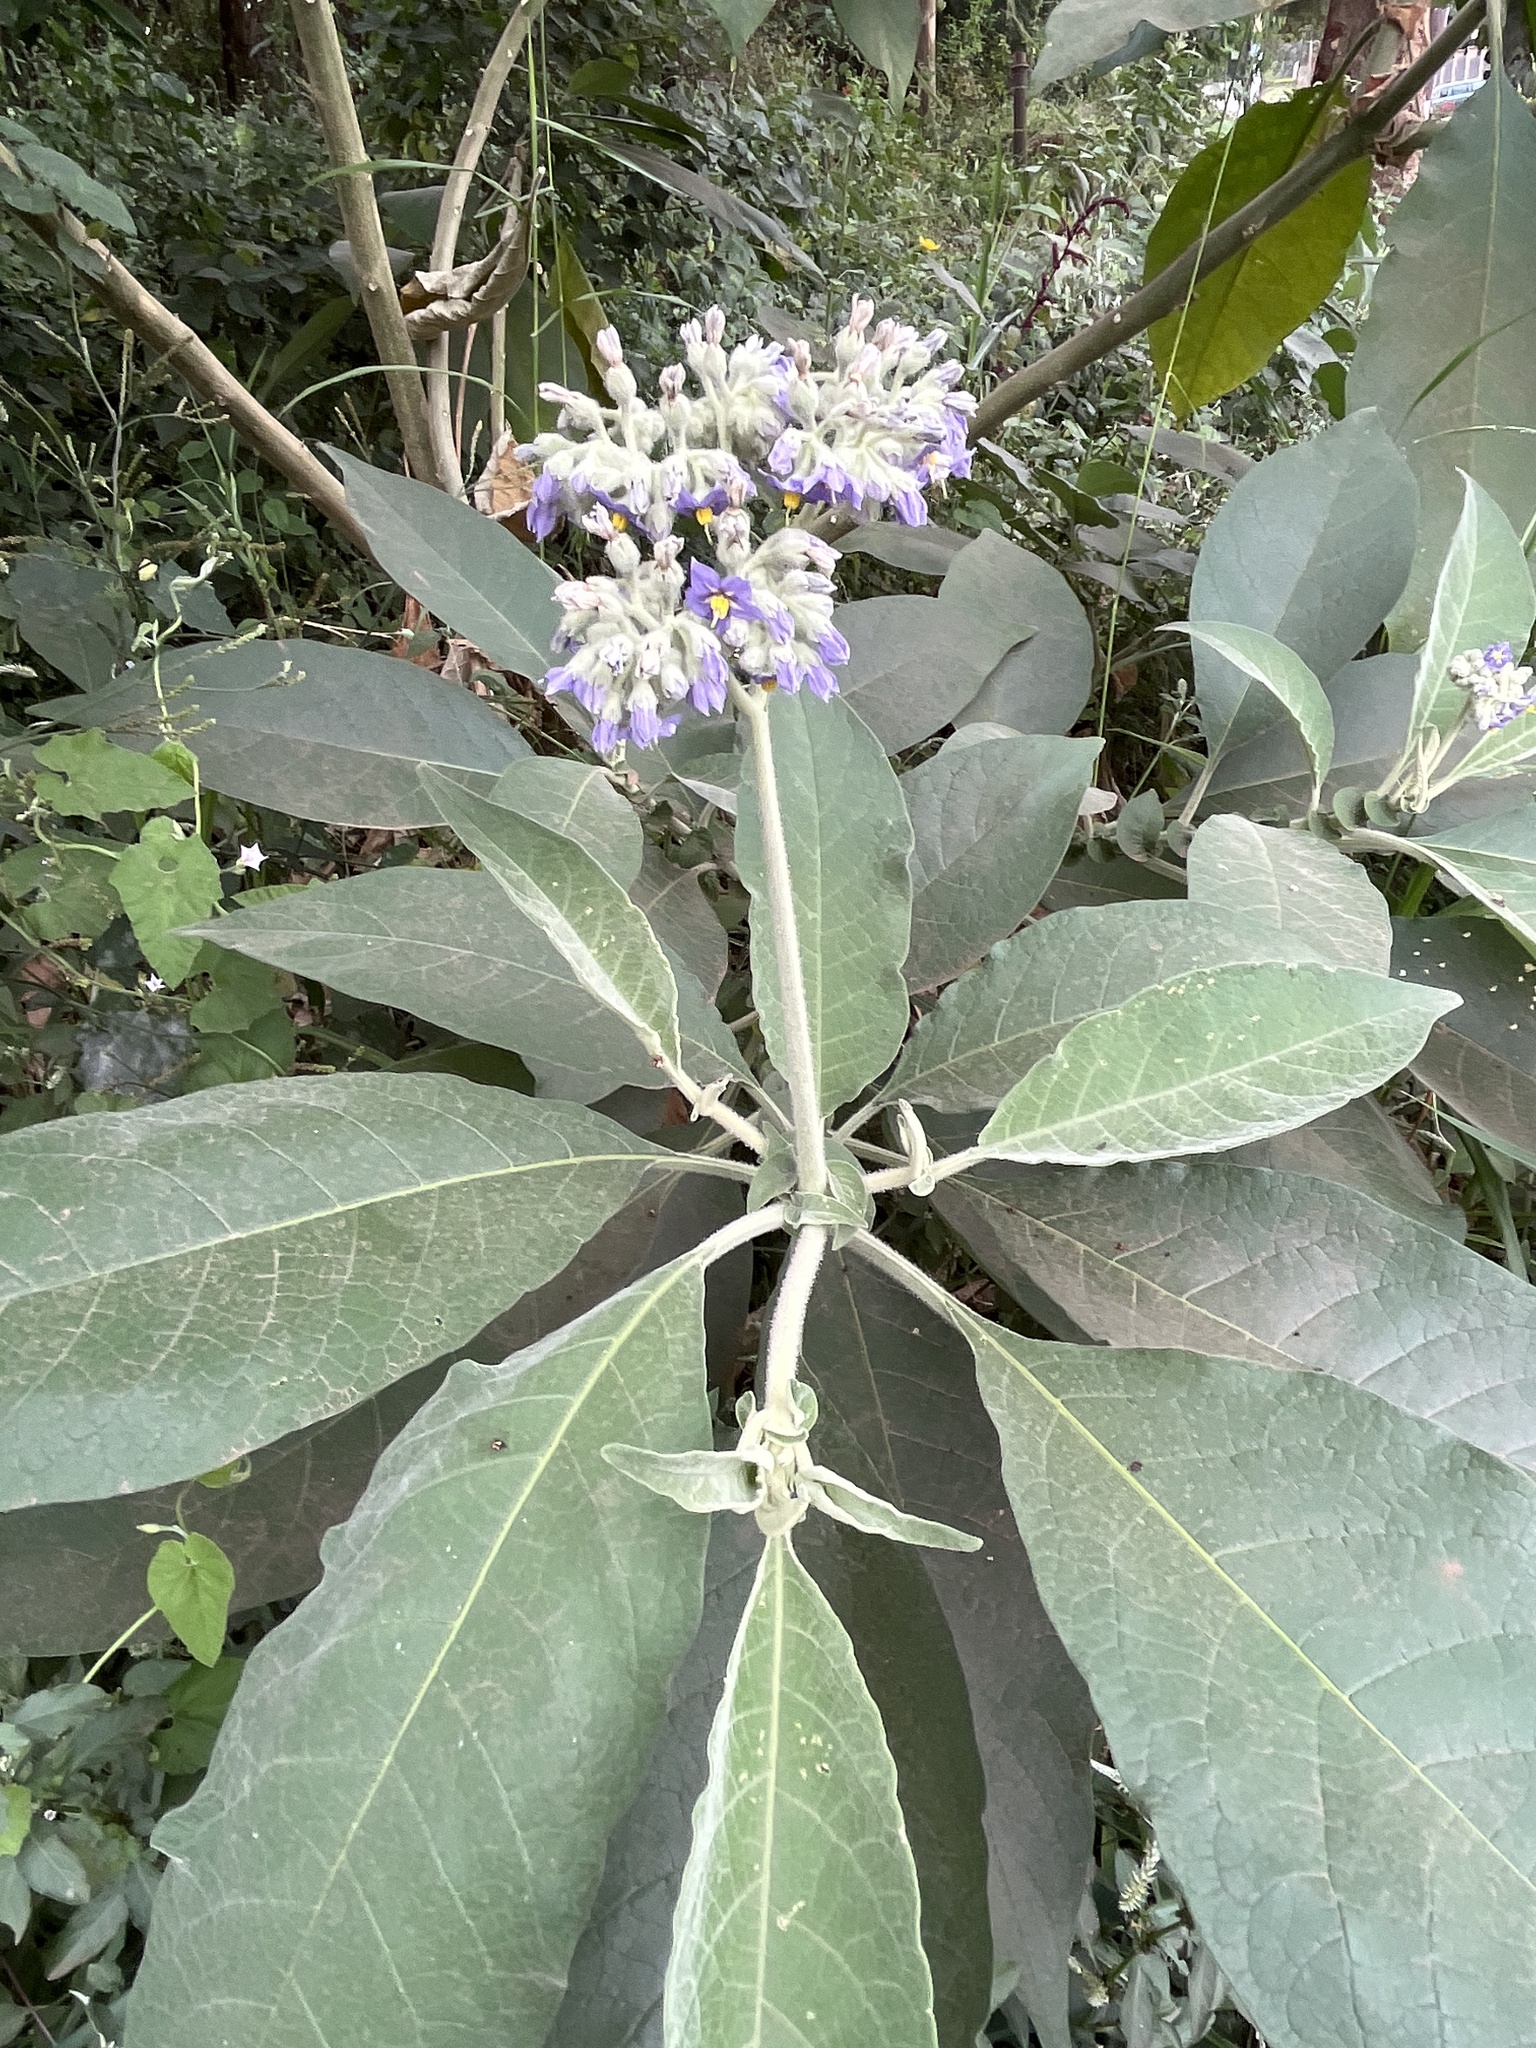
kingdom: Plantae
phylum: Tracheophyta
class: Magnoliopsida
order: Solanales
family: Solanaceae
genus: Solanum
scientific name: Solanum mauritianum
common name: Earleaf nightshade
